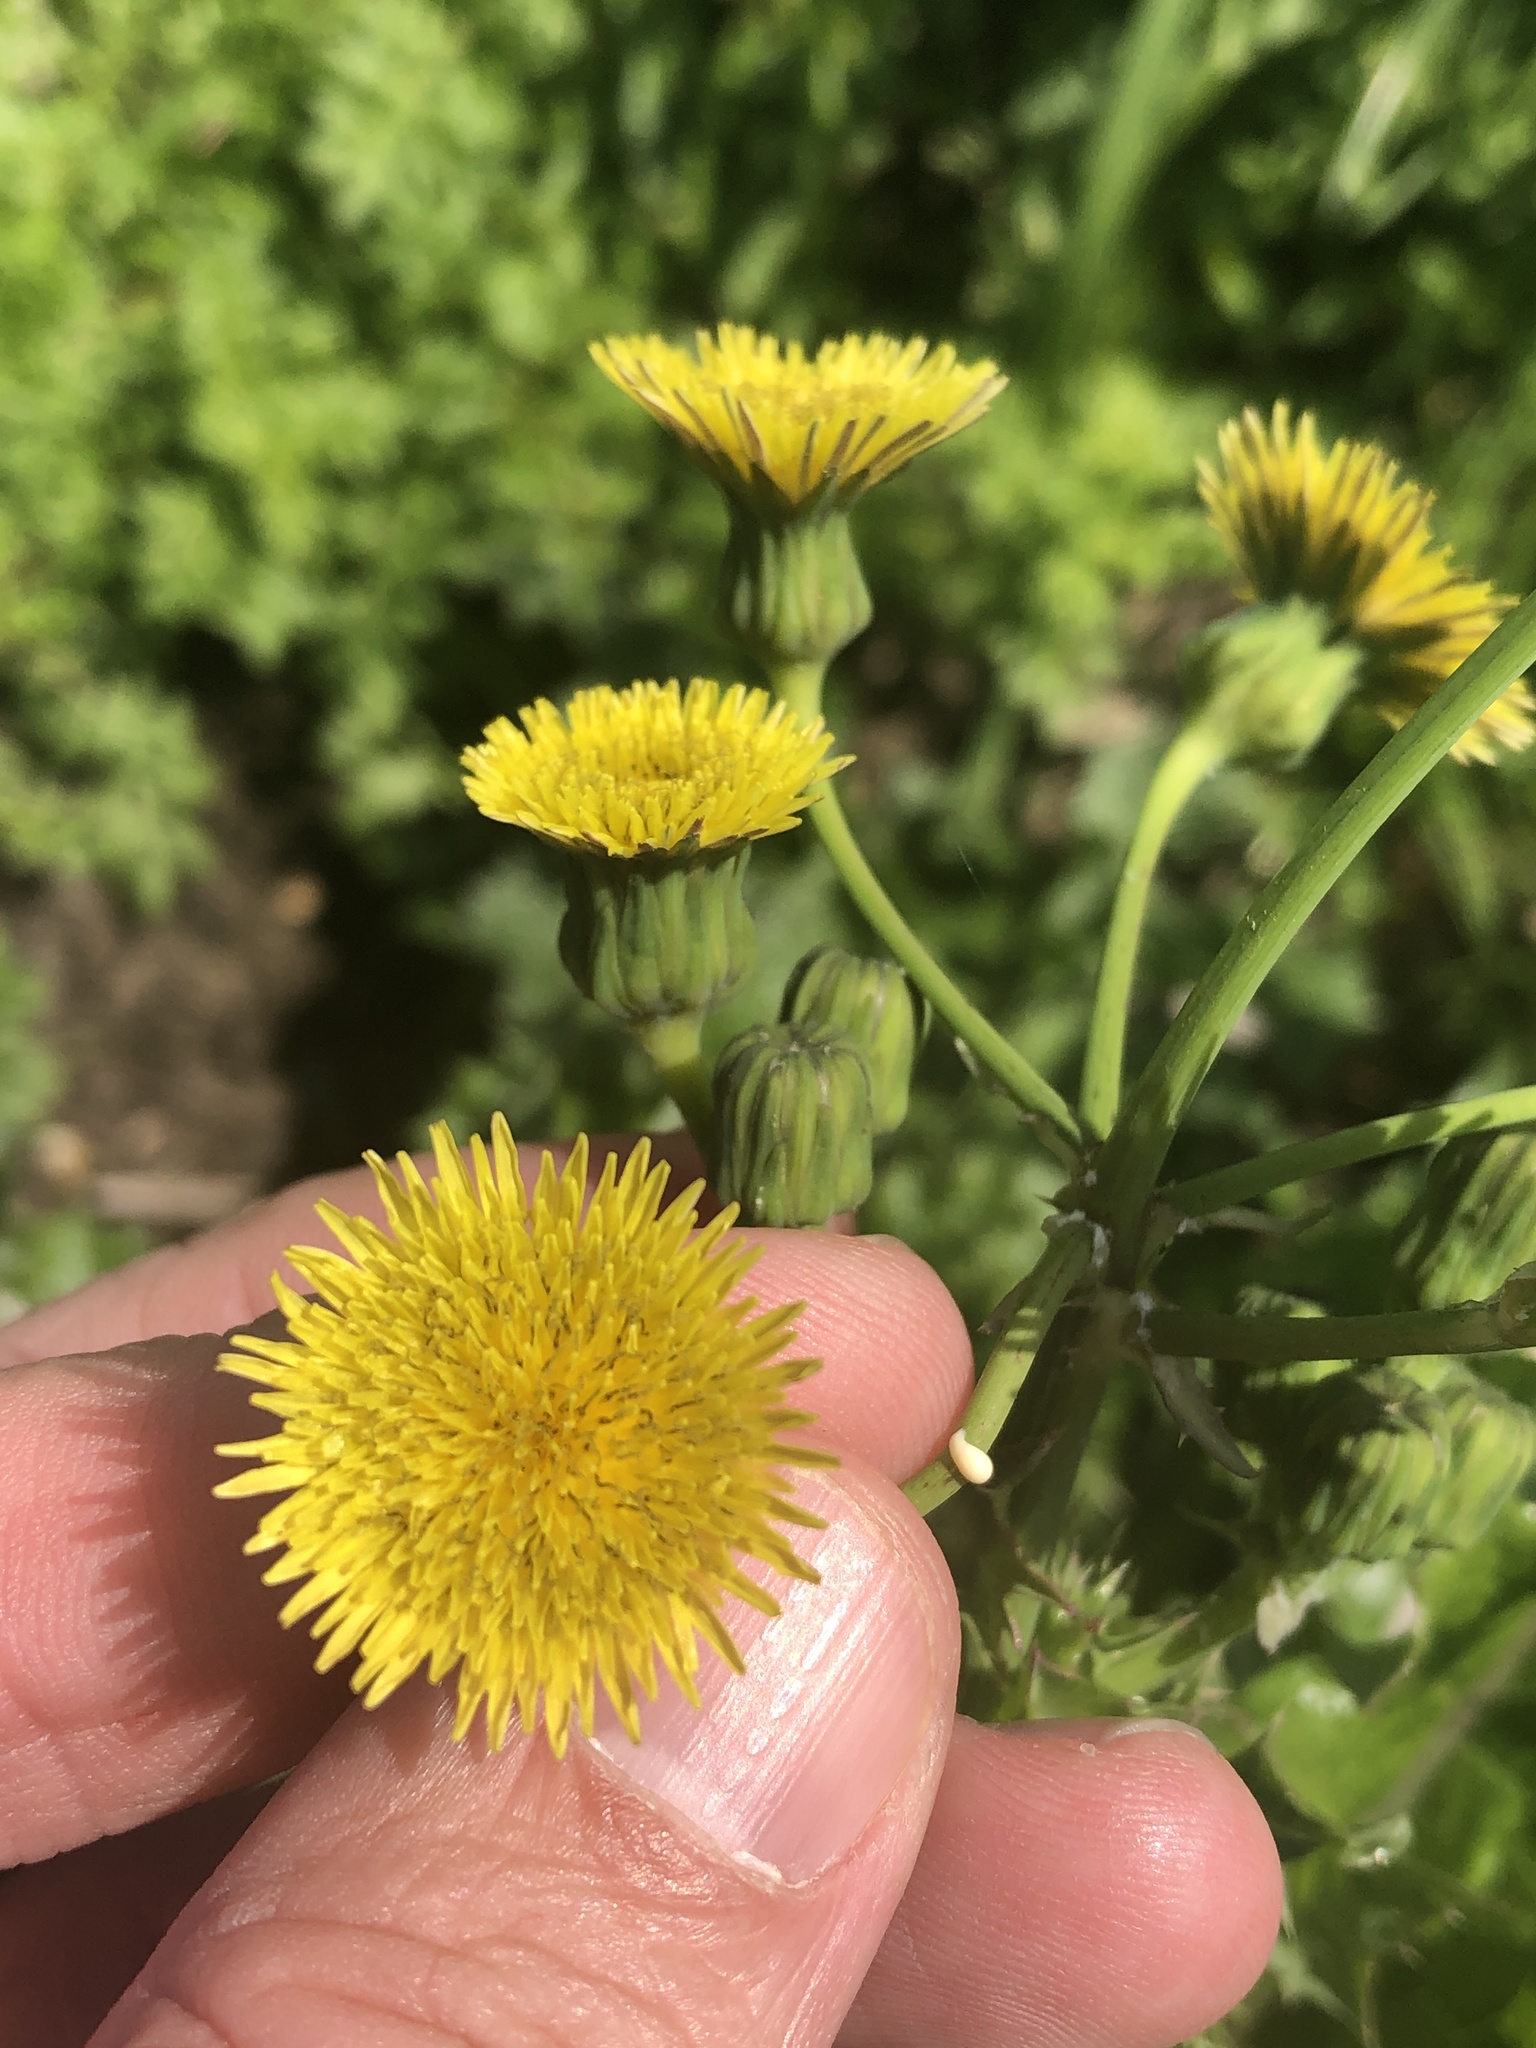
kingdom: Plantae
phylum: Tracheophyta
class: Magnoliopsida
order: Asterales
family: Asteraceae
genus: Sonchus
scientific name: Sonchus asper
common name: Prickly sow-thistle
